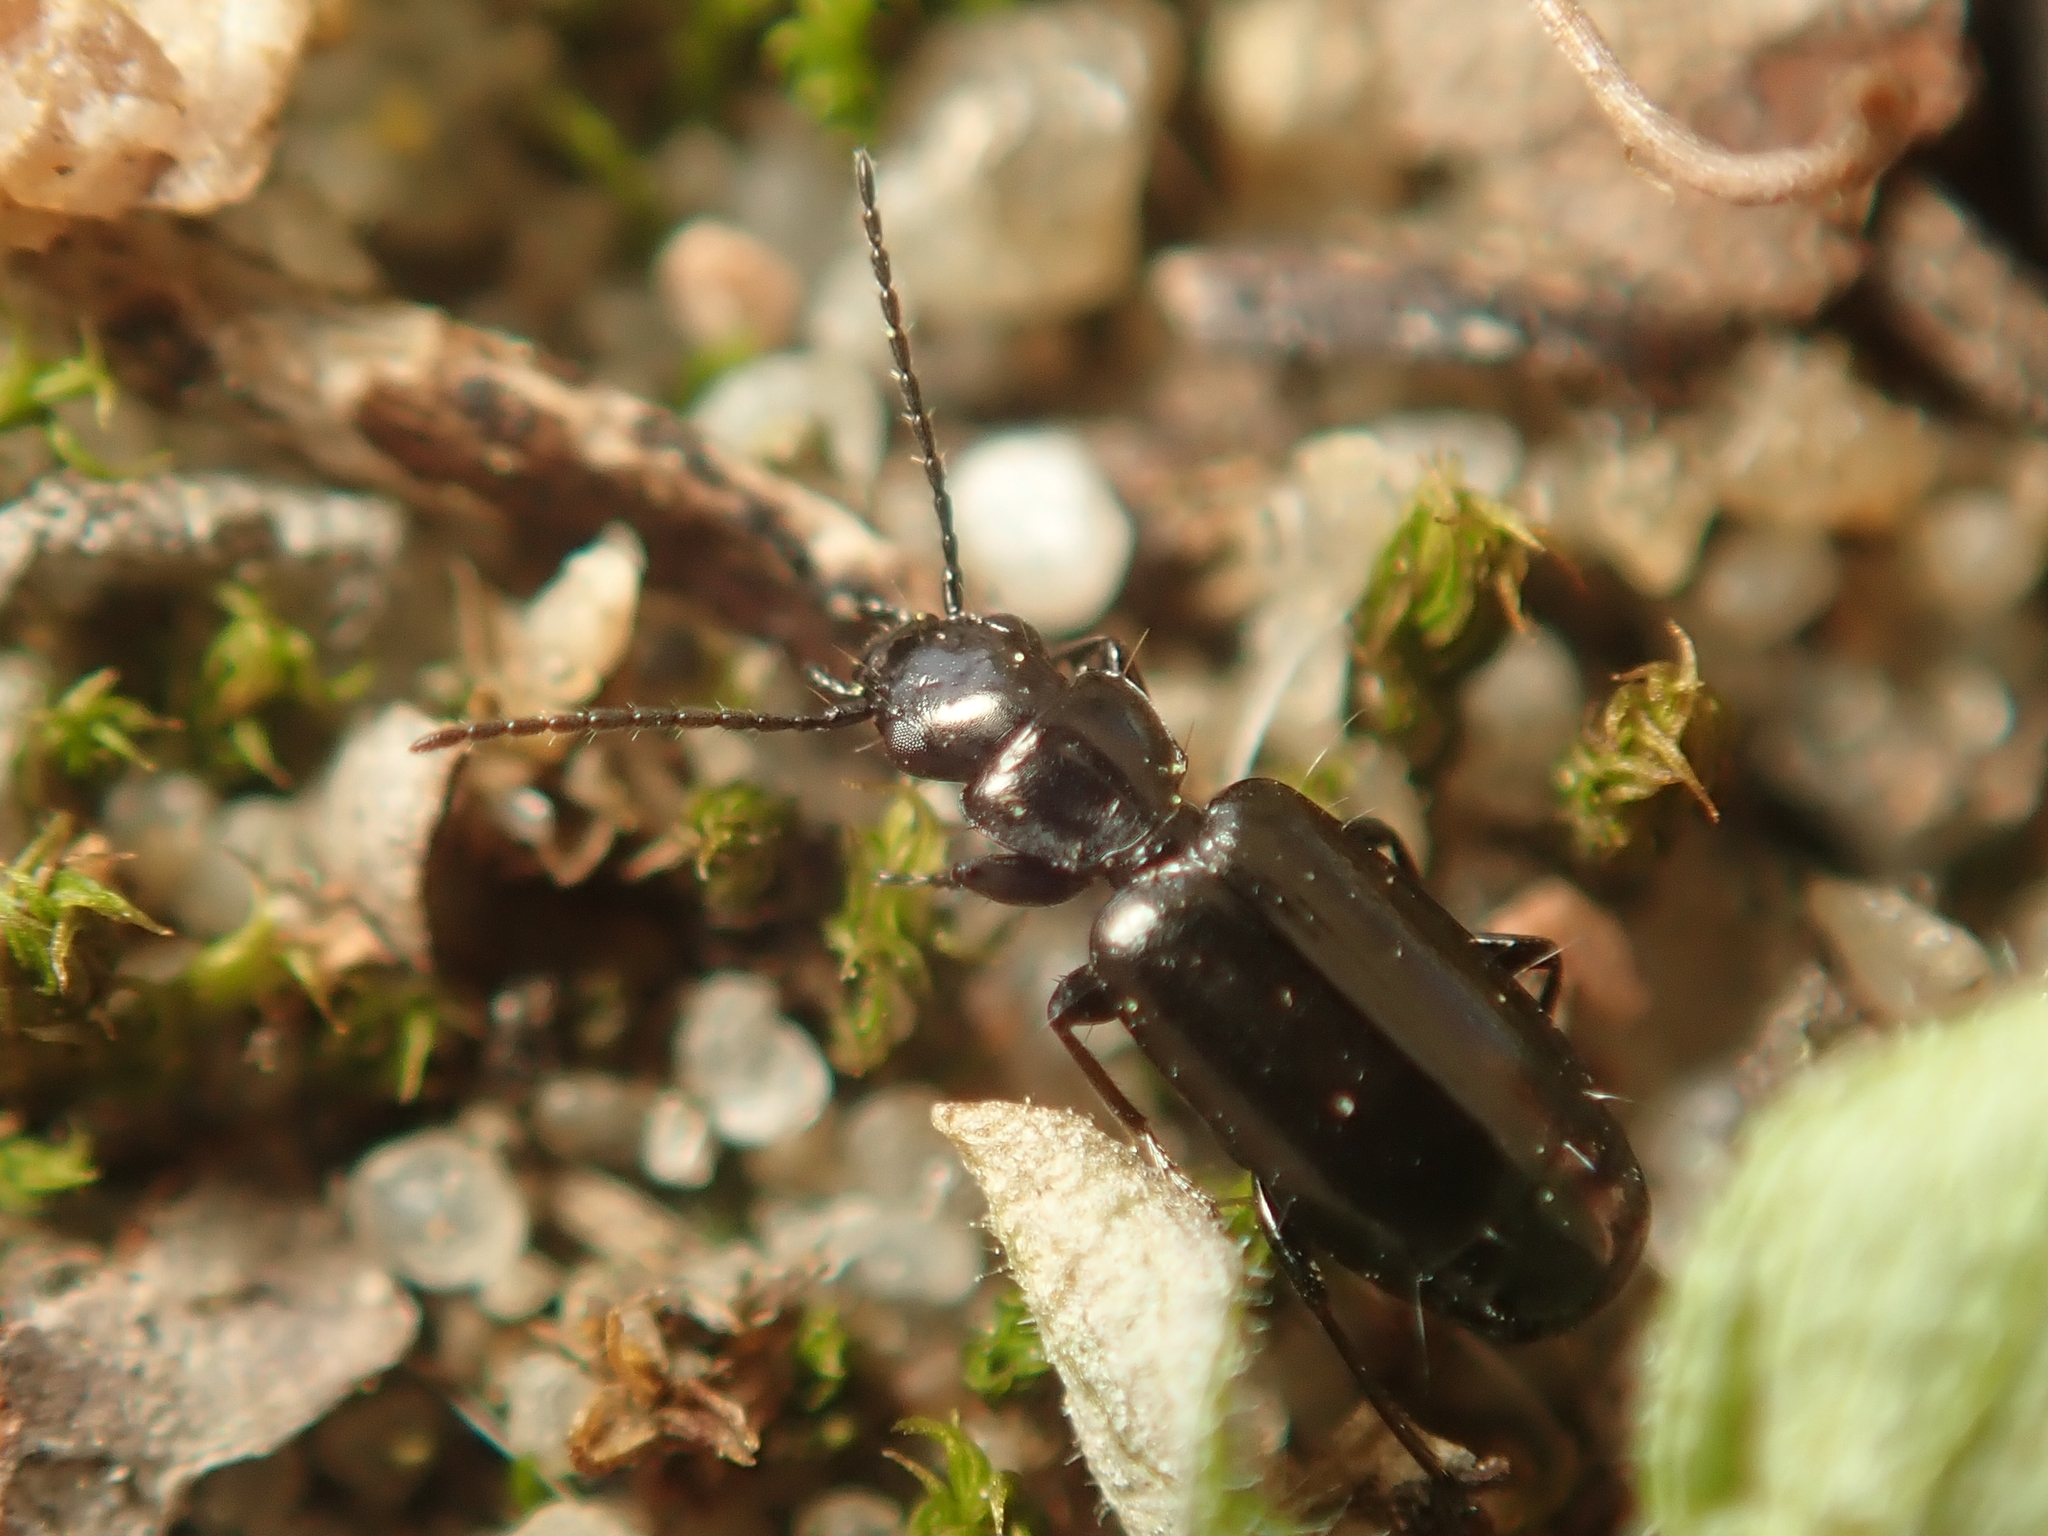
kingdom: Animalia
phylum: Arthropoda
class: Insecta
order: Coleoptera
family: Carabidae
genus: Microlestes
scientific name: Microlestes minutulus
